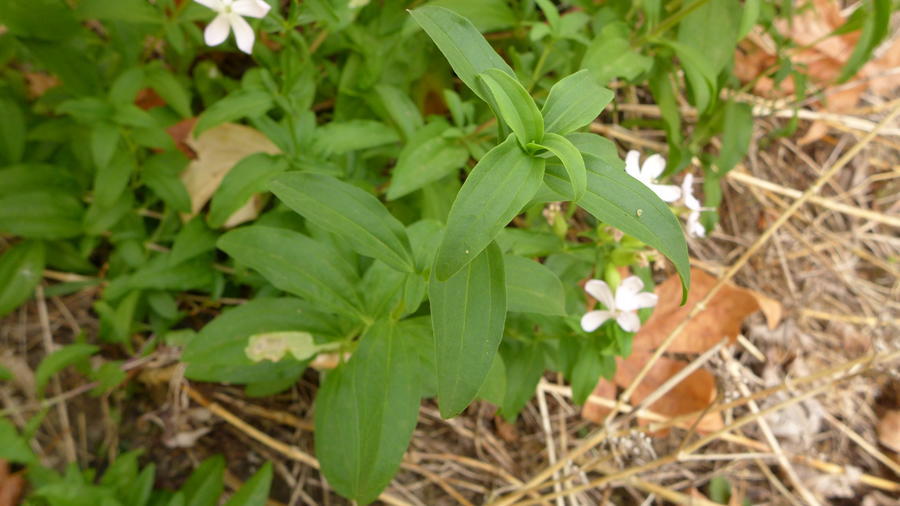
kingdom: Plantae
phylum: Tracheophyta
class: Magnoliopsida
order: Caryophyllales
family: Caryophyllaceae
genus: Saponaria
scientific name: Saponaria officinalis
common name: Soapwort
